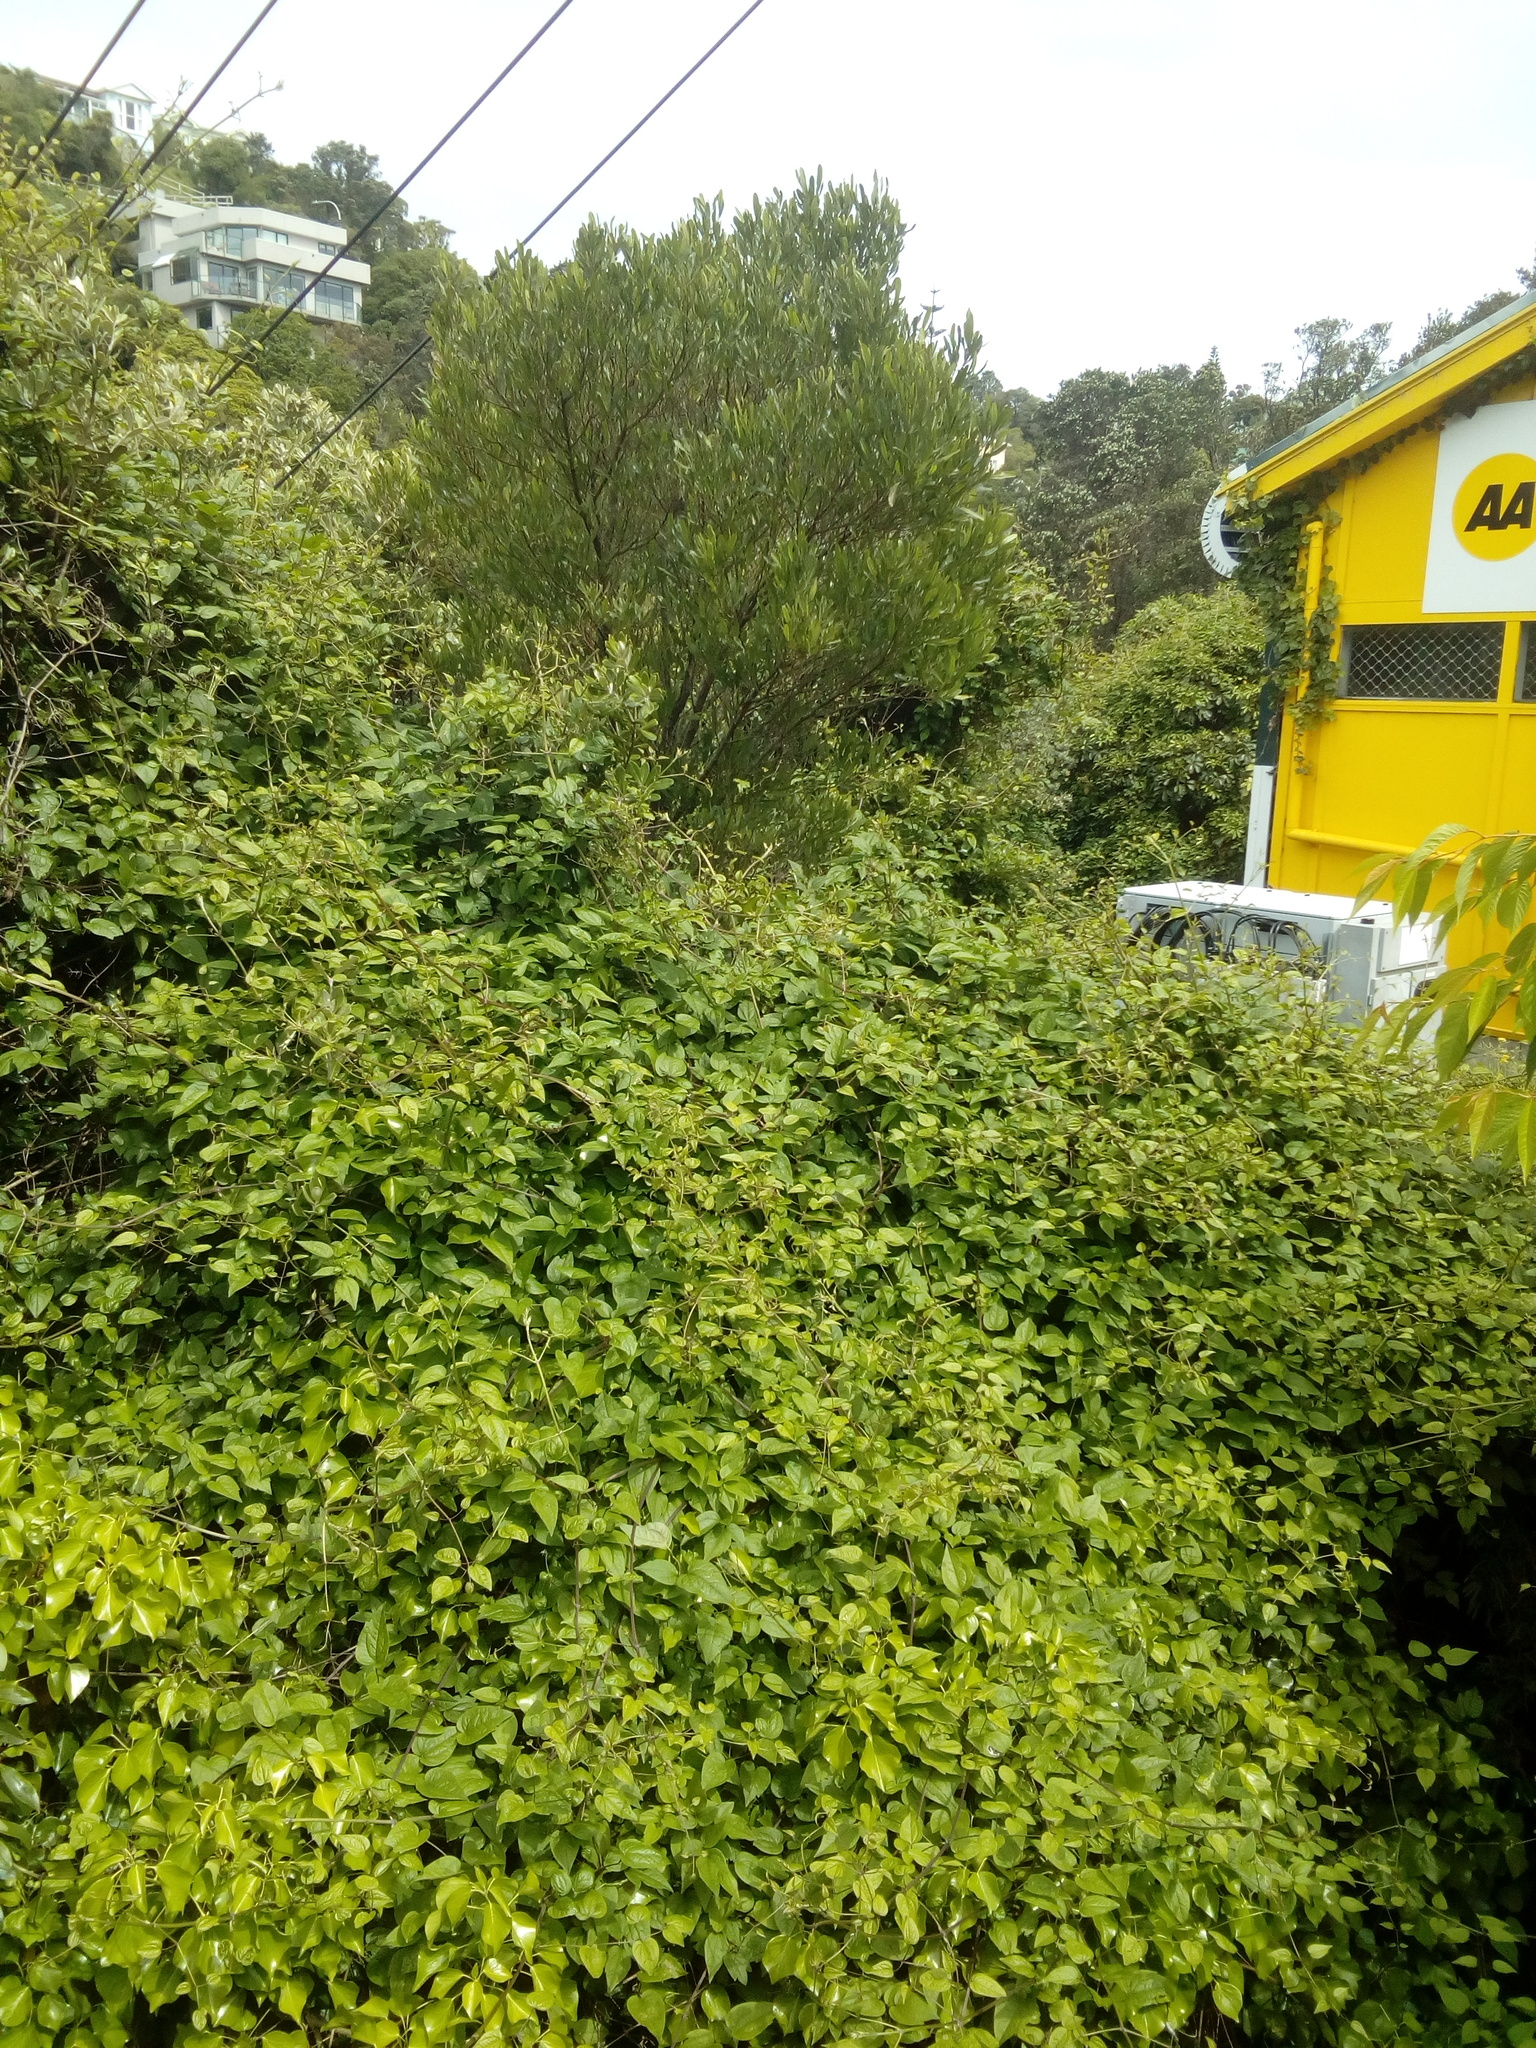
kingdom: Plantae
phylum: Tracheophyta
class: Magnoliopsida
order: Ranunculales
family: Ranunculaceae
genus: Clematis
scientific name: Clematis vitalba
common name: Evergreen clematis
